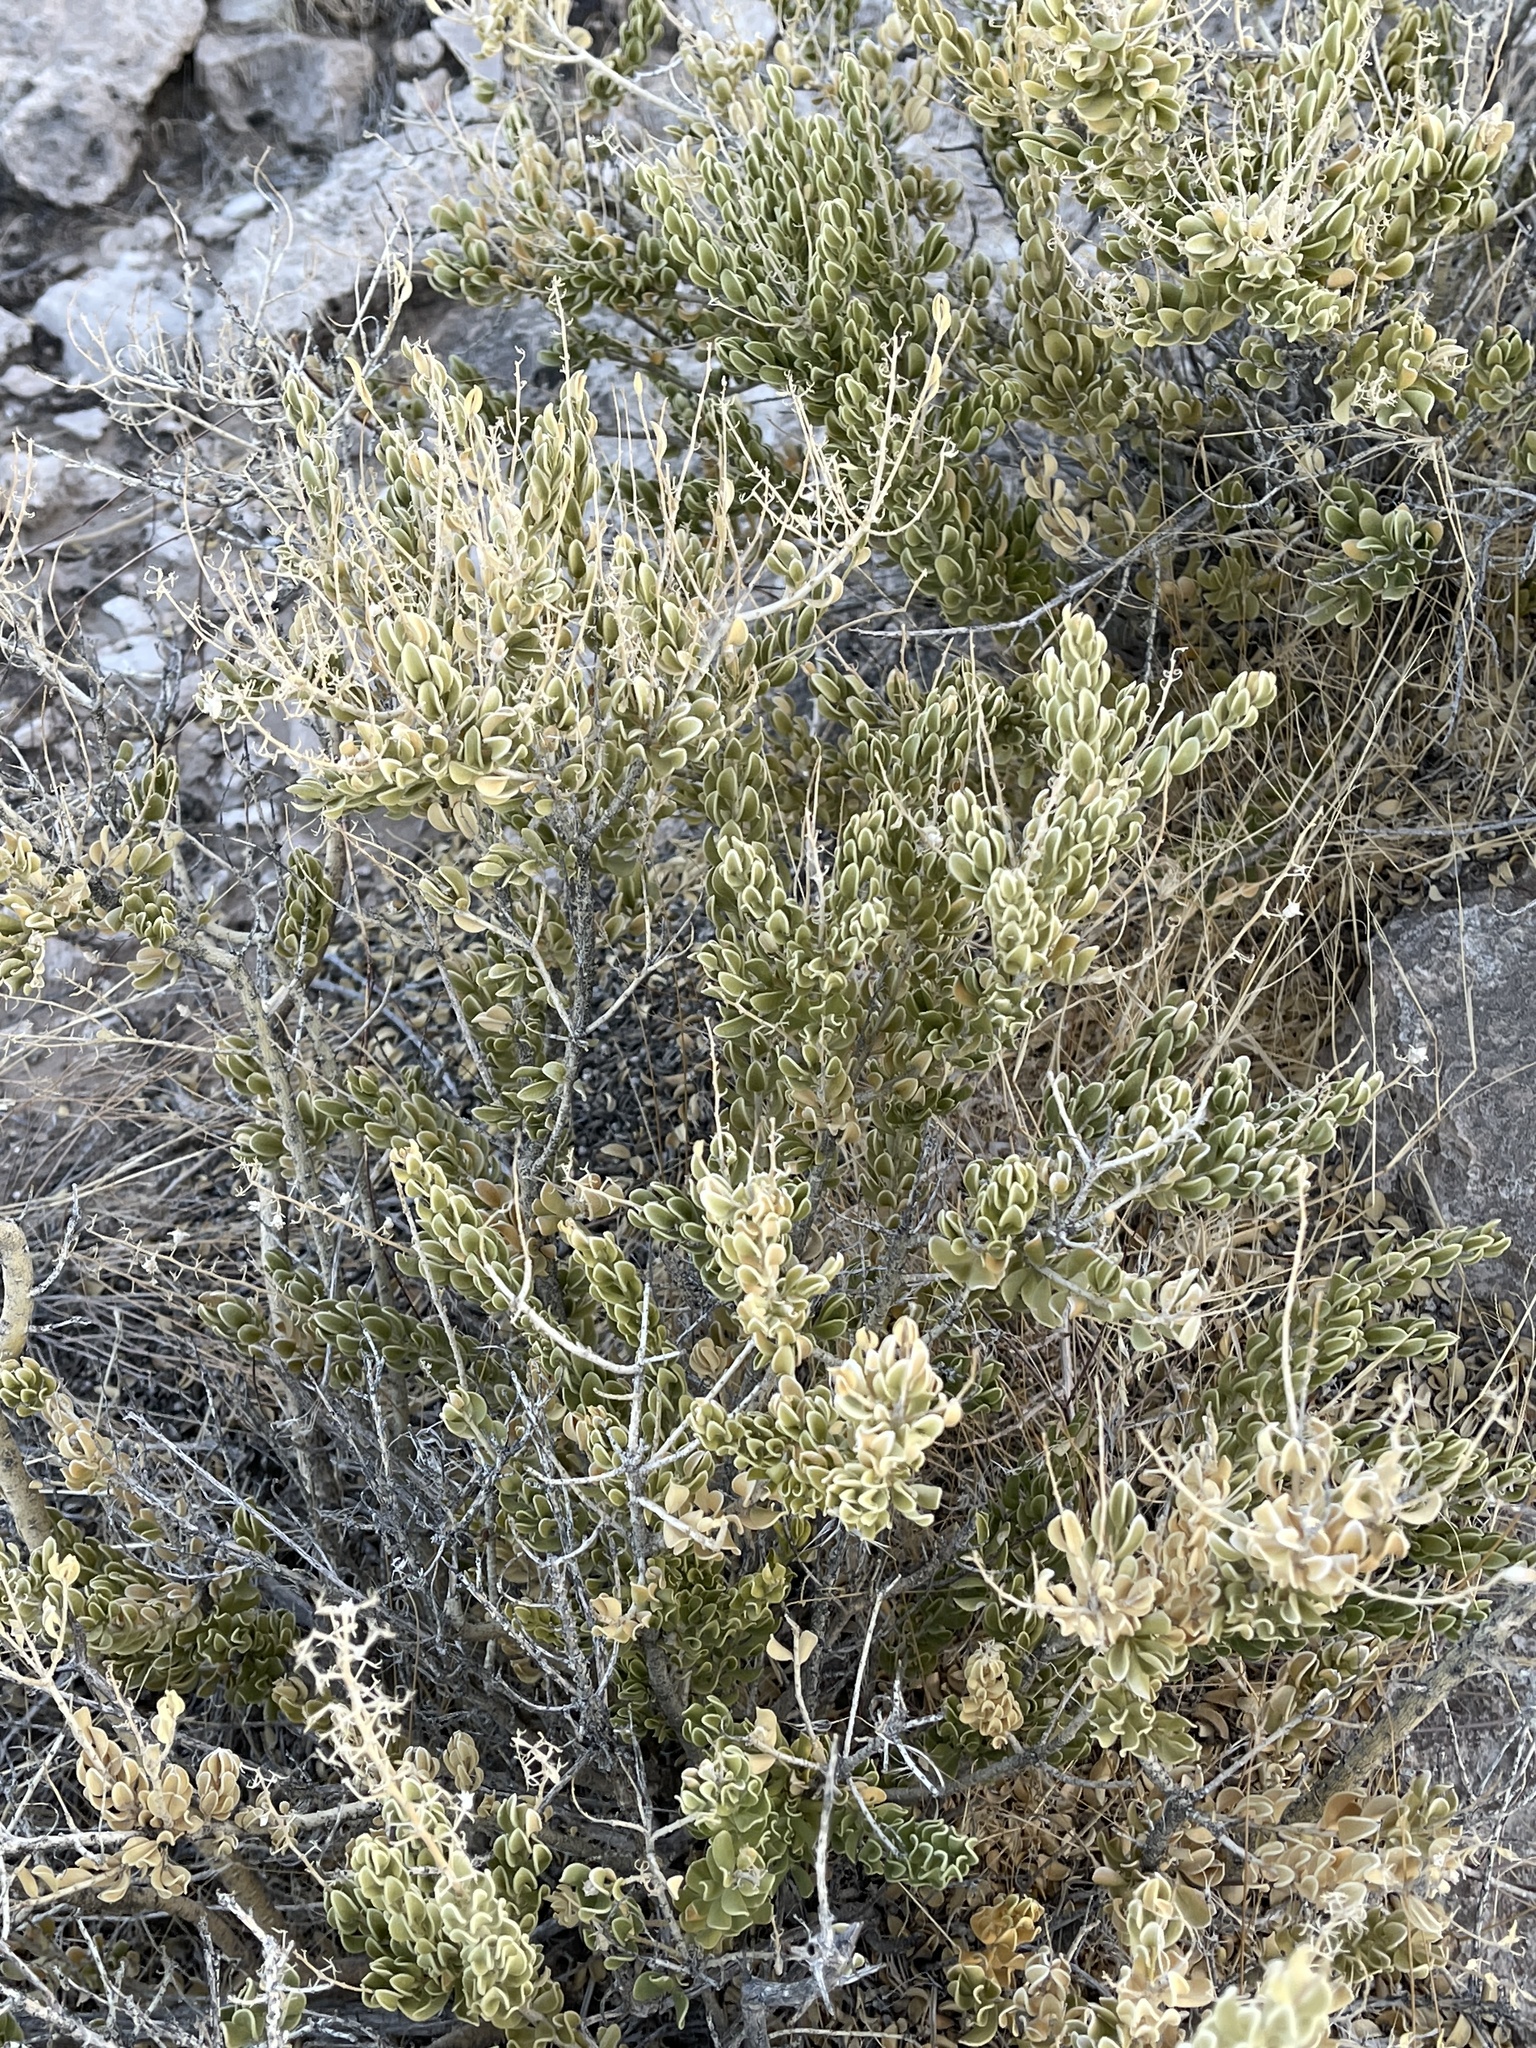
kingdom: Plantae
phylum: Tracheophyta
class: Magnoliopsida
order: Celastrales
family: Celastraceae
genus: Mortonia
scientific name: Mortonia utahensis
